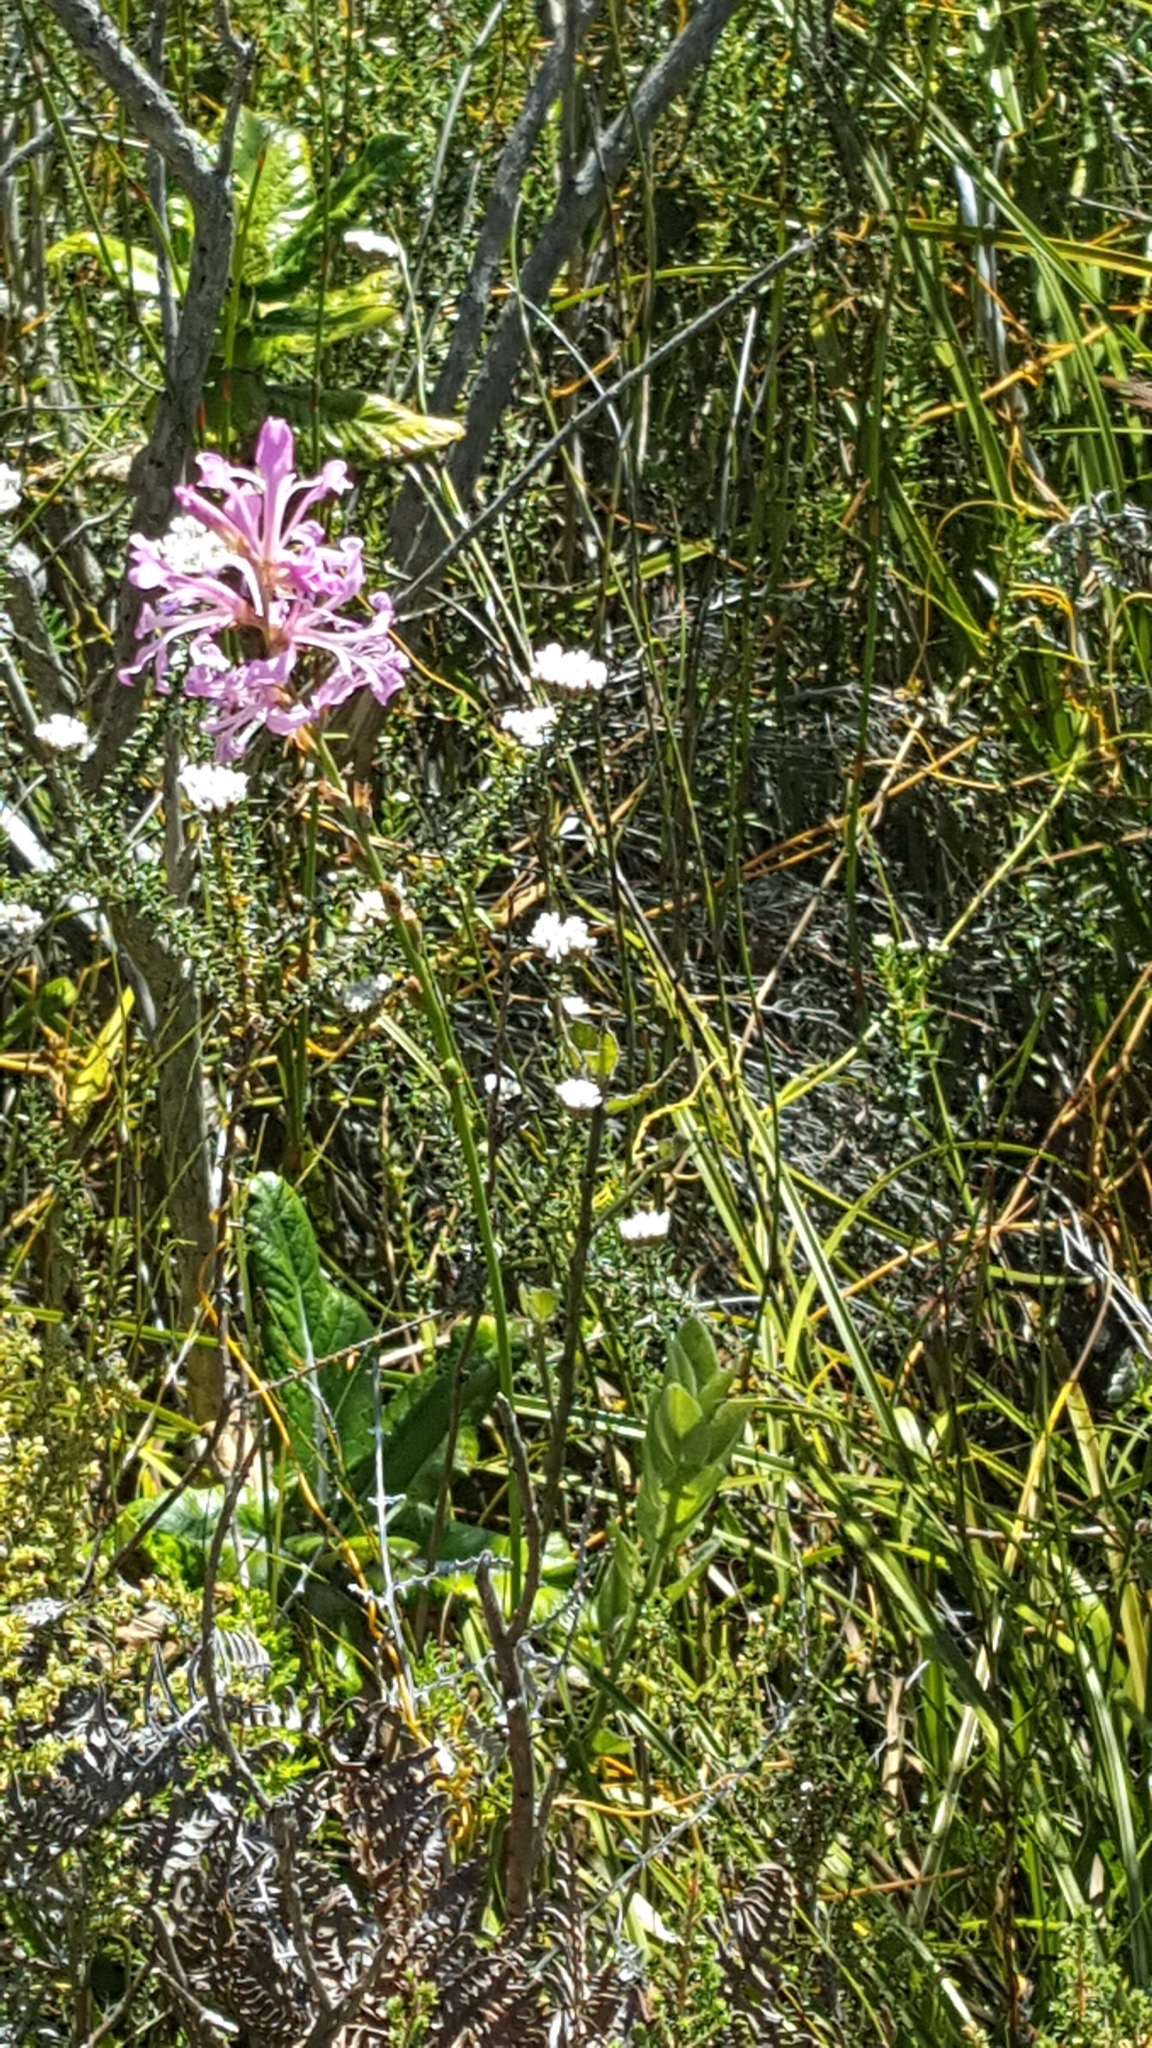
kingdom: Plantae
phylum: Tracheophyta
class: Liliopsida
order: Asparagales
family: Iridaceae
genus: Tritoniopsis
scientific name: Tritoniopsis lata
